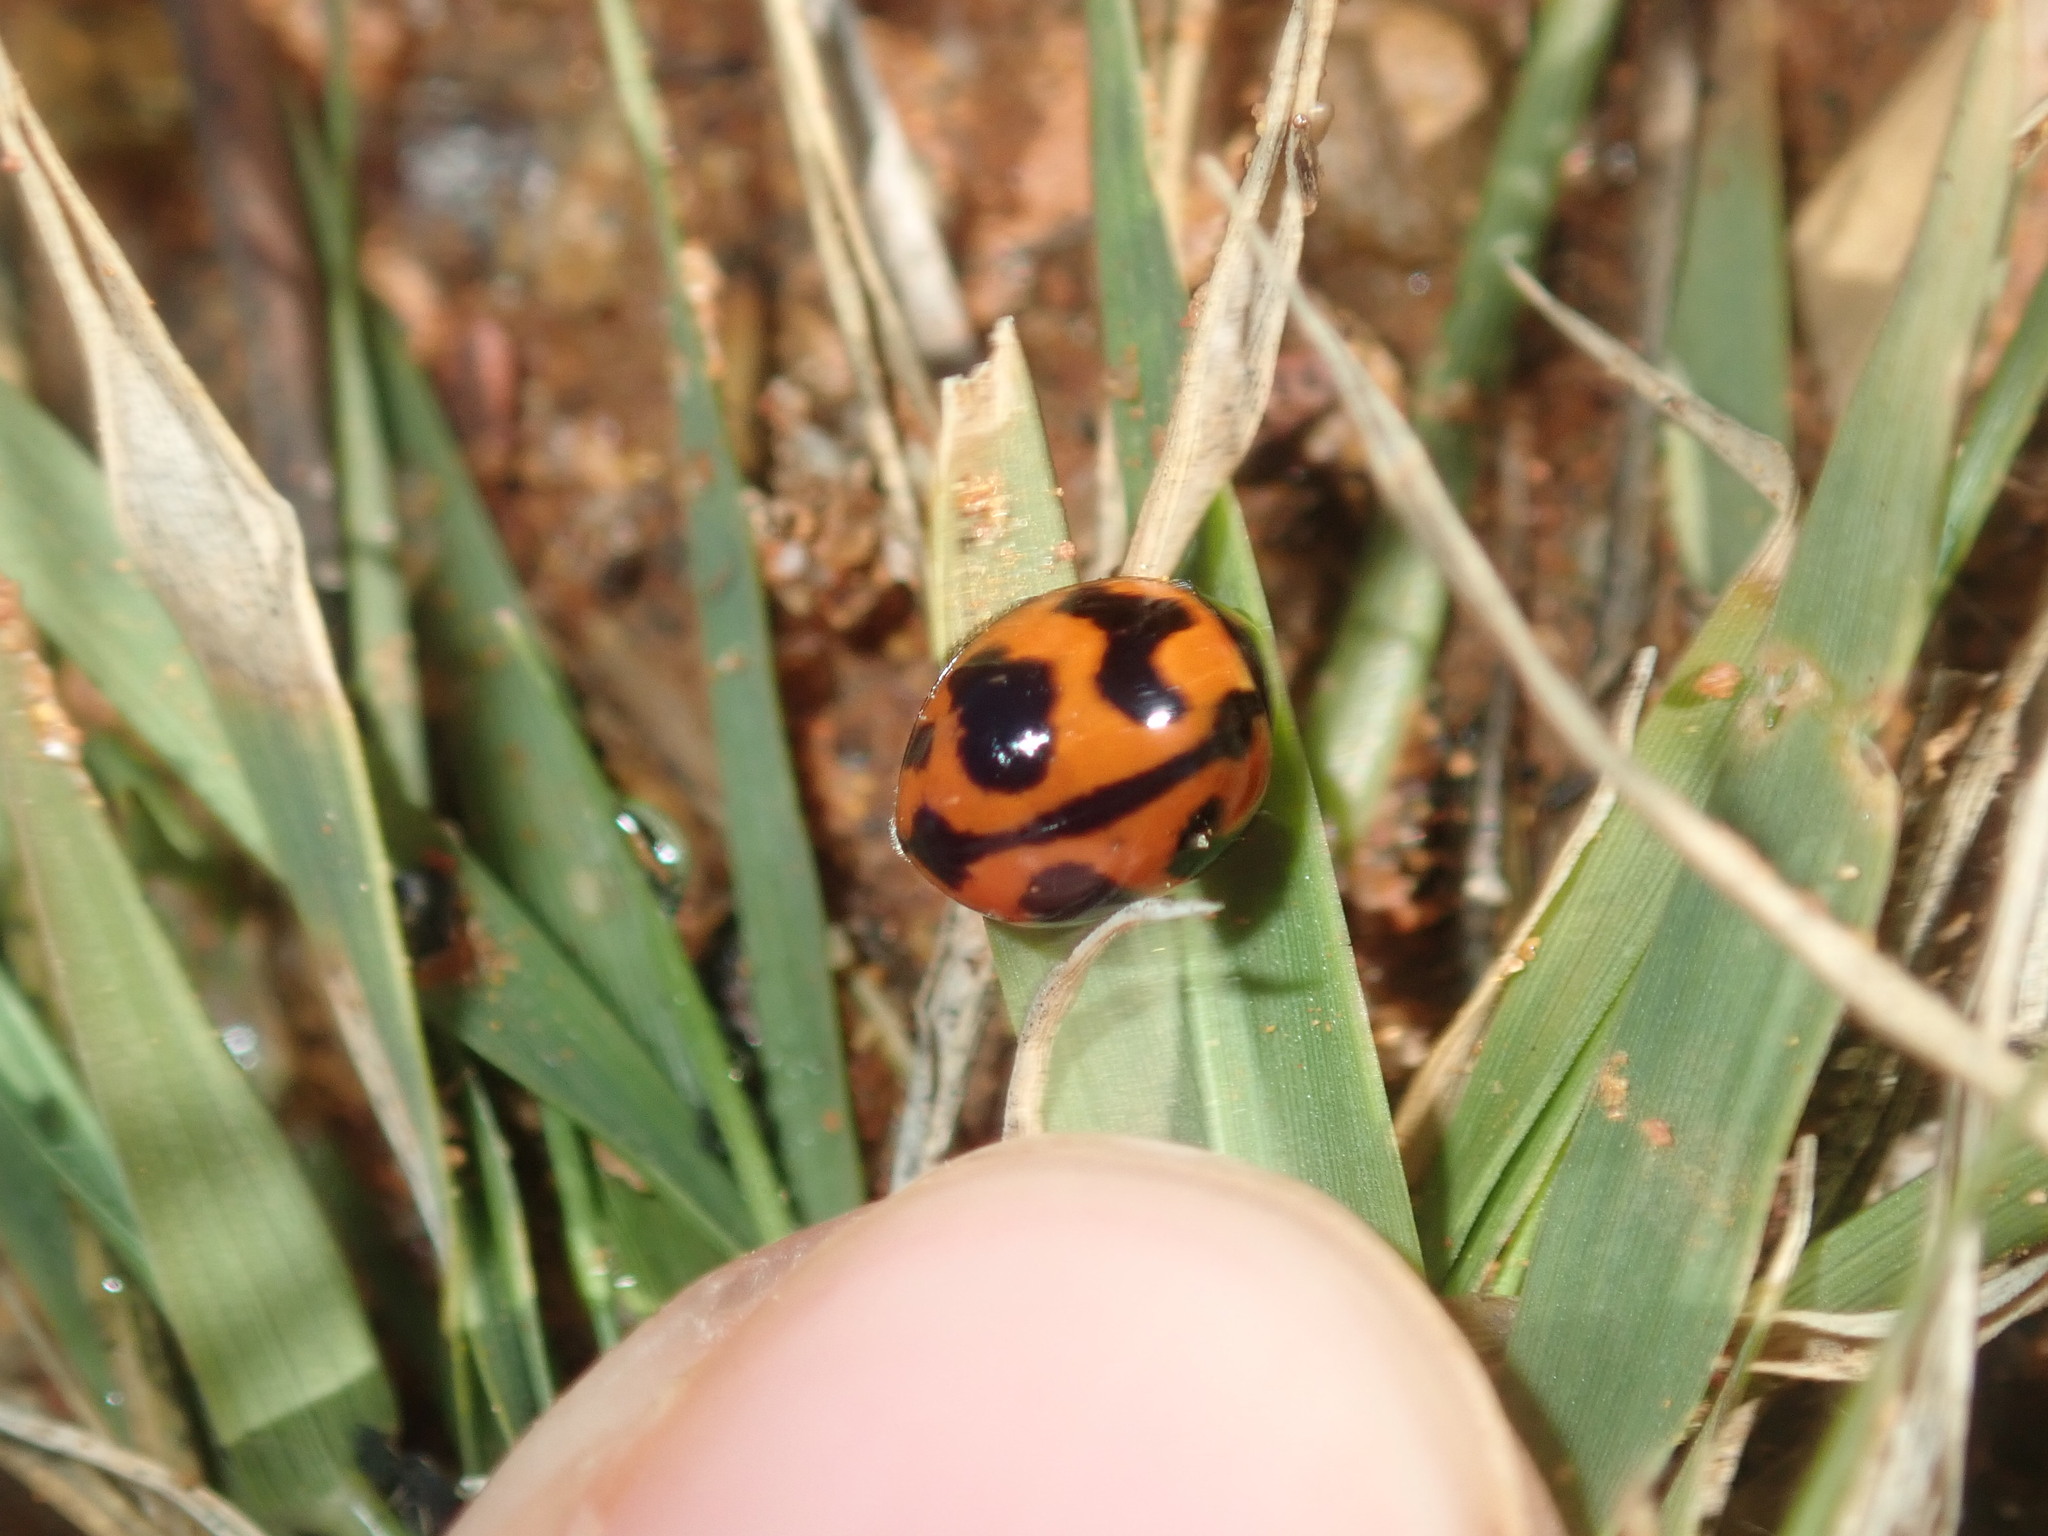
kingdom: Animalia
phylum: Arthropoda
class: Insecta
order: Coleoptera
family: Coccinellidae
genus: Coccinella
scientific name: Coccinella transversalis
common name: Transverse lady beetle
